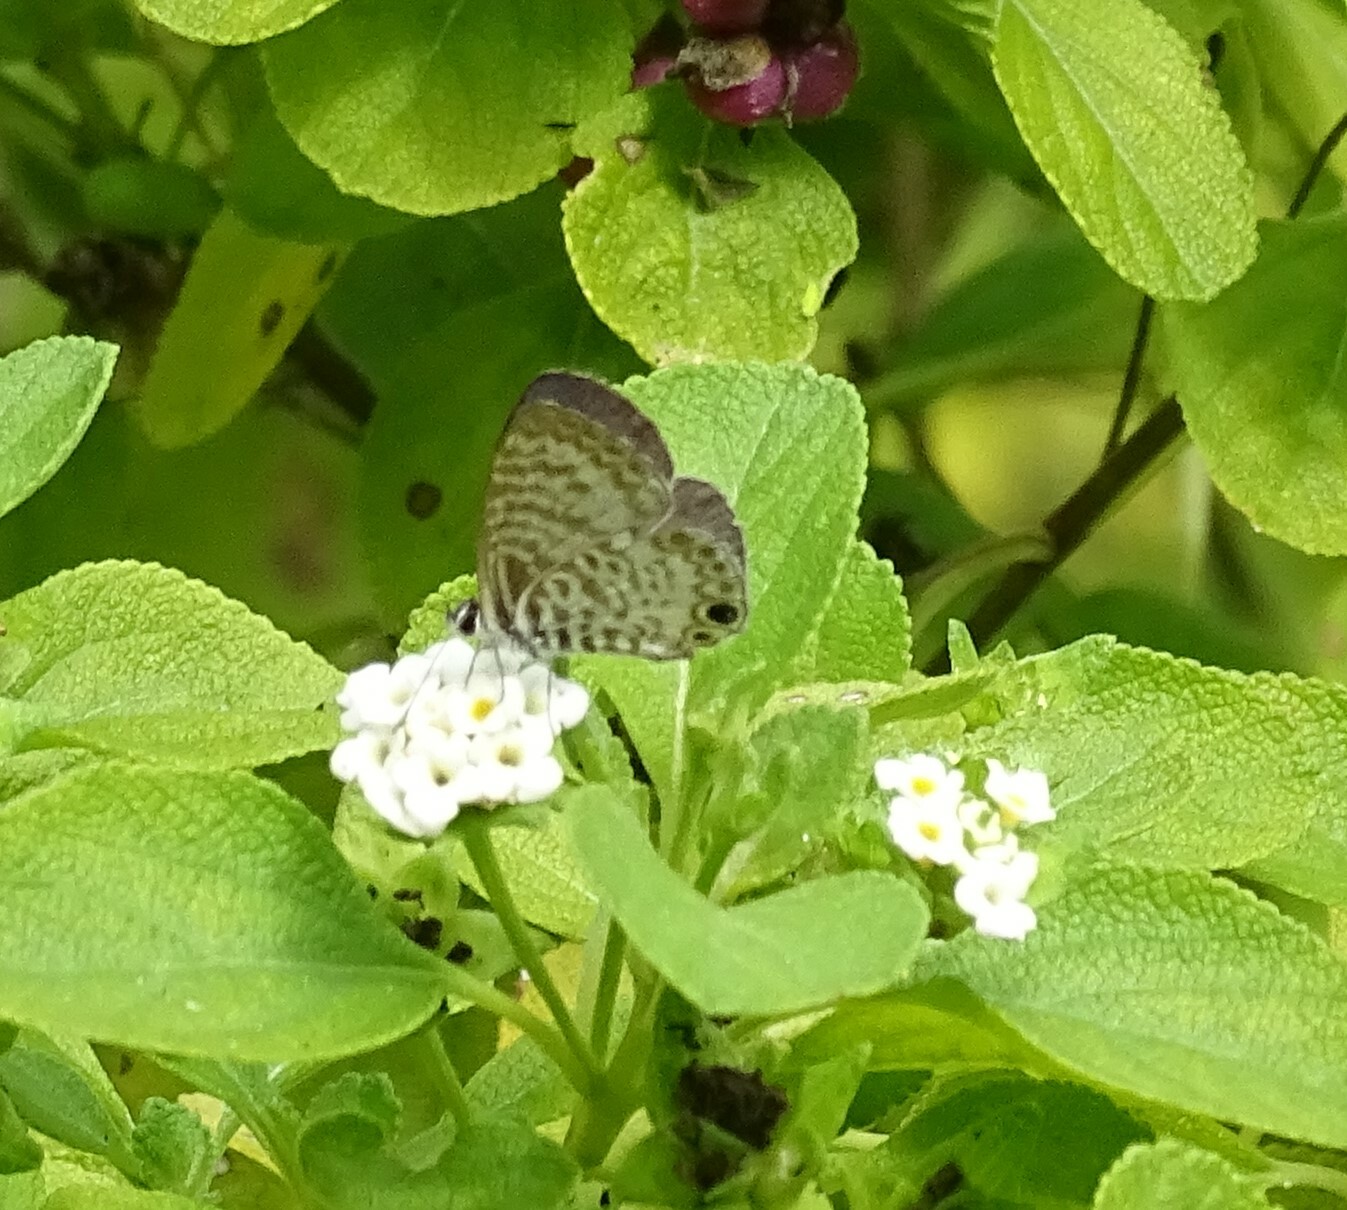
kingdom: Animalia
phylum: Arthropoda
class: Insecta
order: Lepidoptera
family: Lycaenidae
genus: Leptotes
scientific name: Leptotes cassius
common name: Cassius blue
